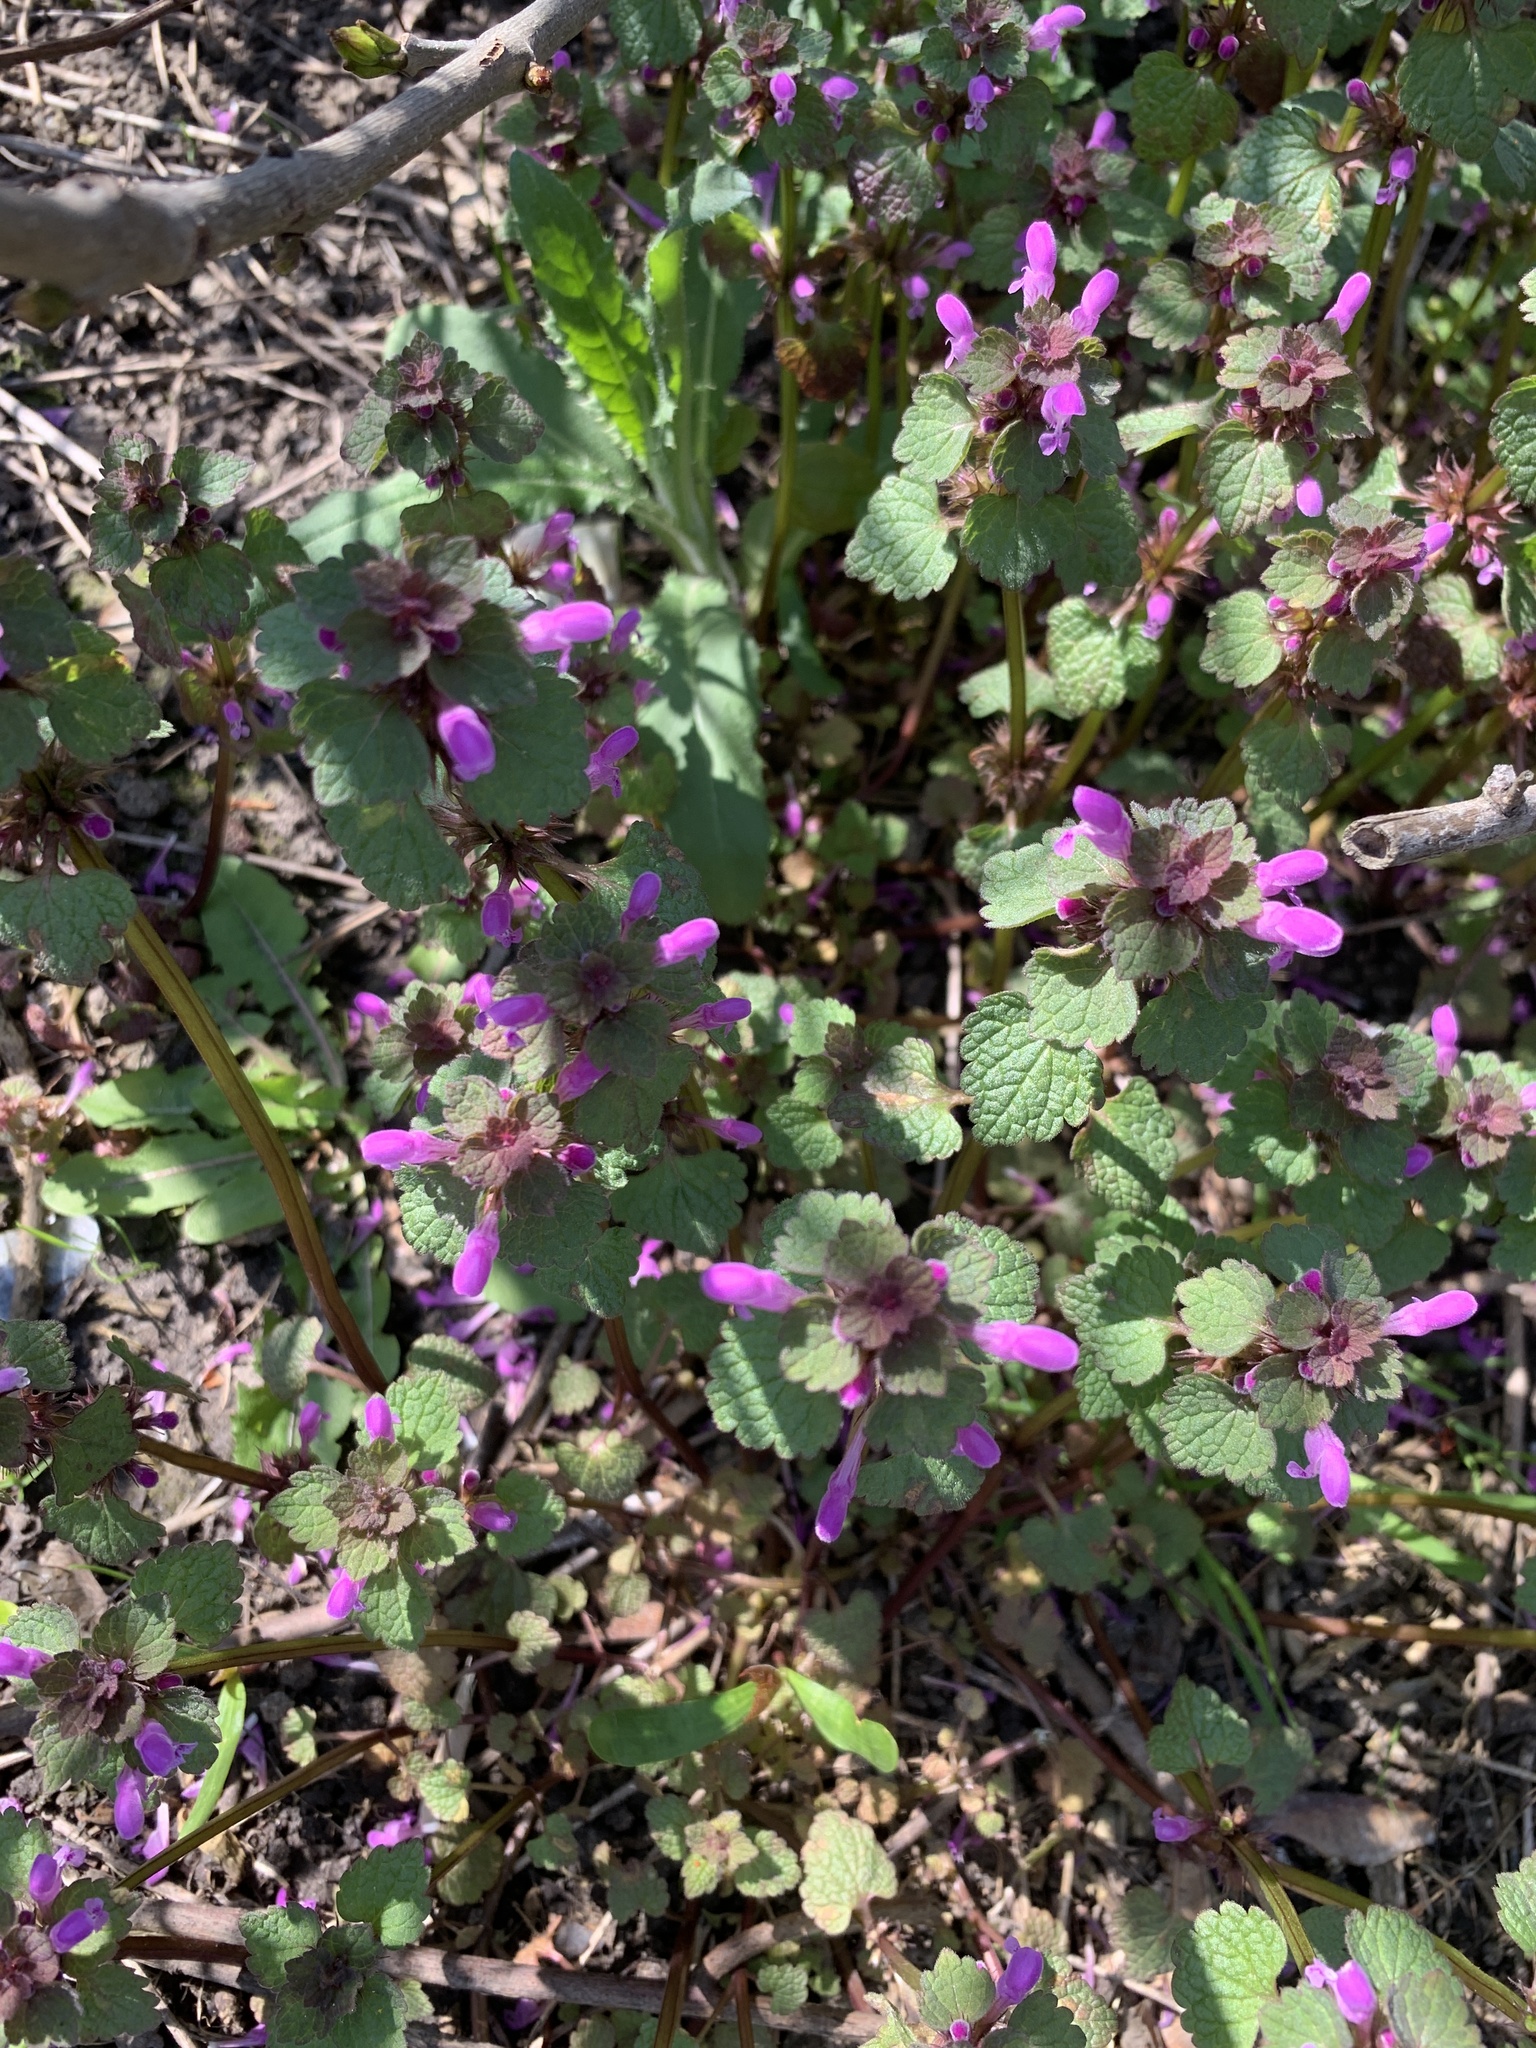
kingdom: Plantae
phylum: Tracheophyta
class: Magnoliopsida
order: Lamiales
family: Lamiaceae
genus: Lamium
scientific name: Lamium purpureum
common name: Red dead-nettle
